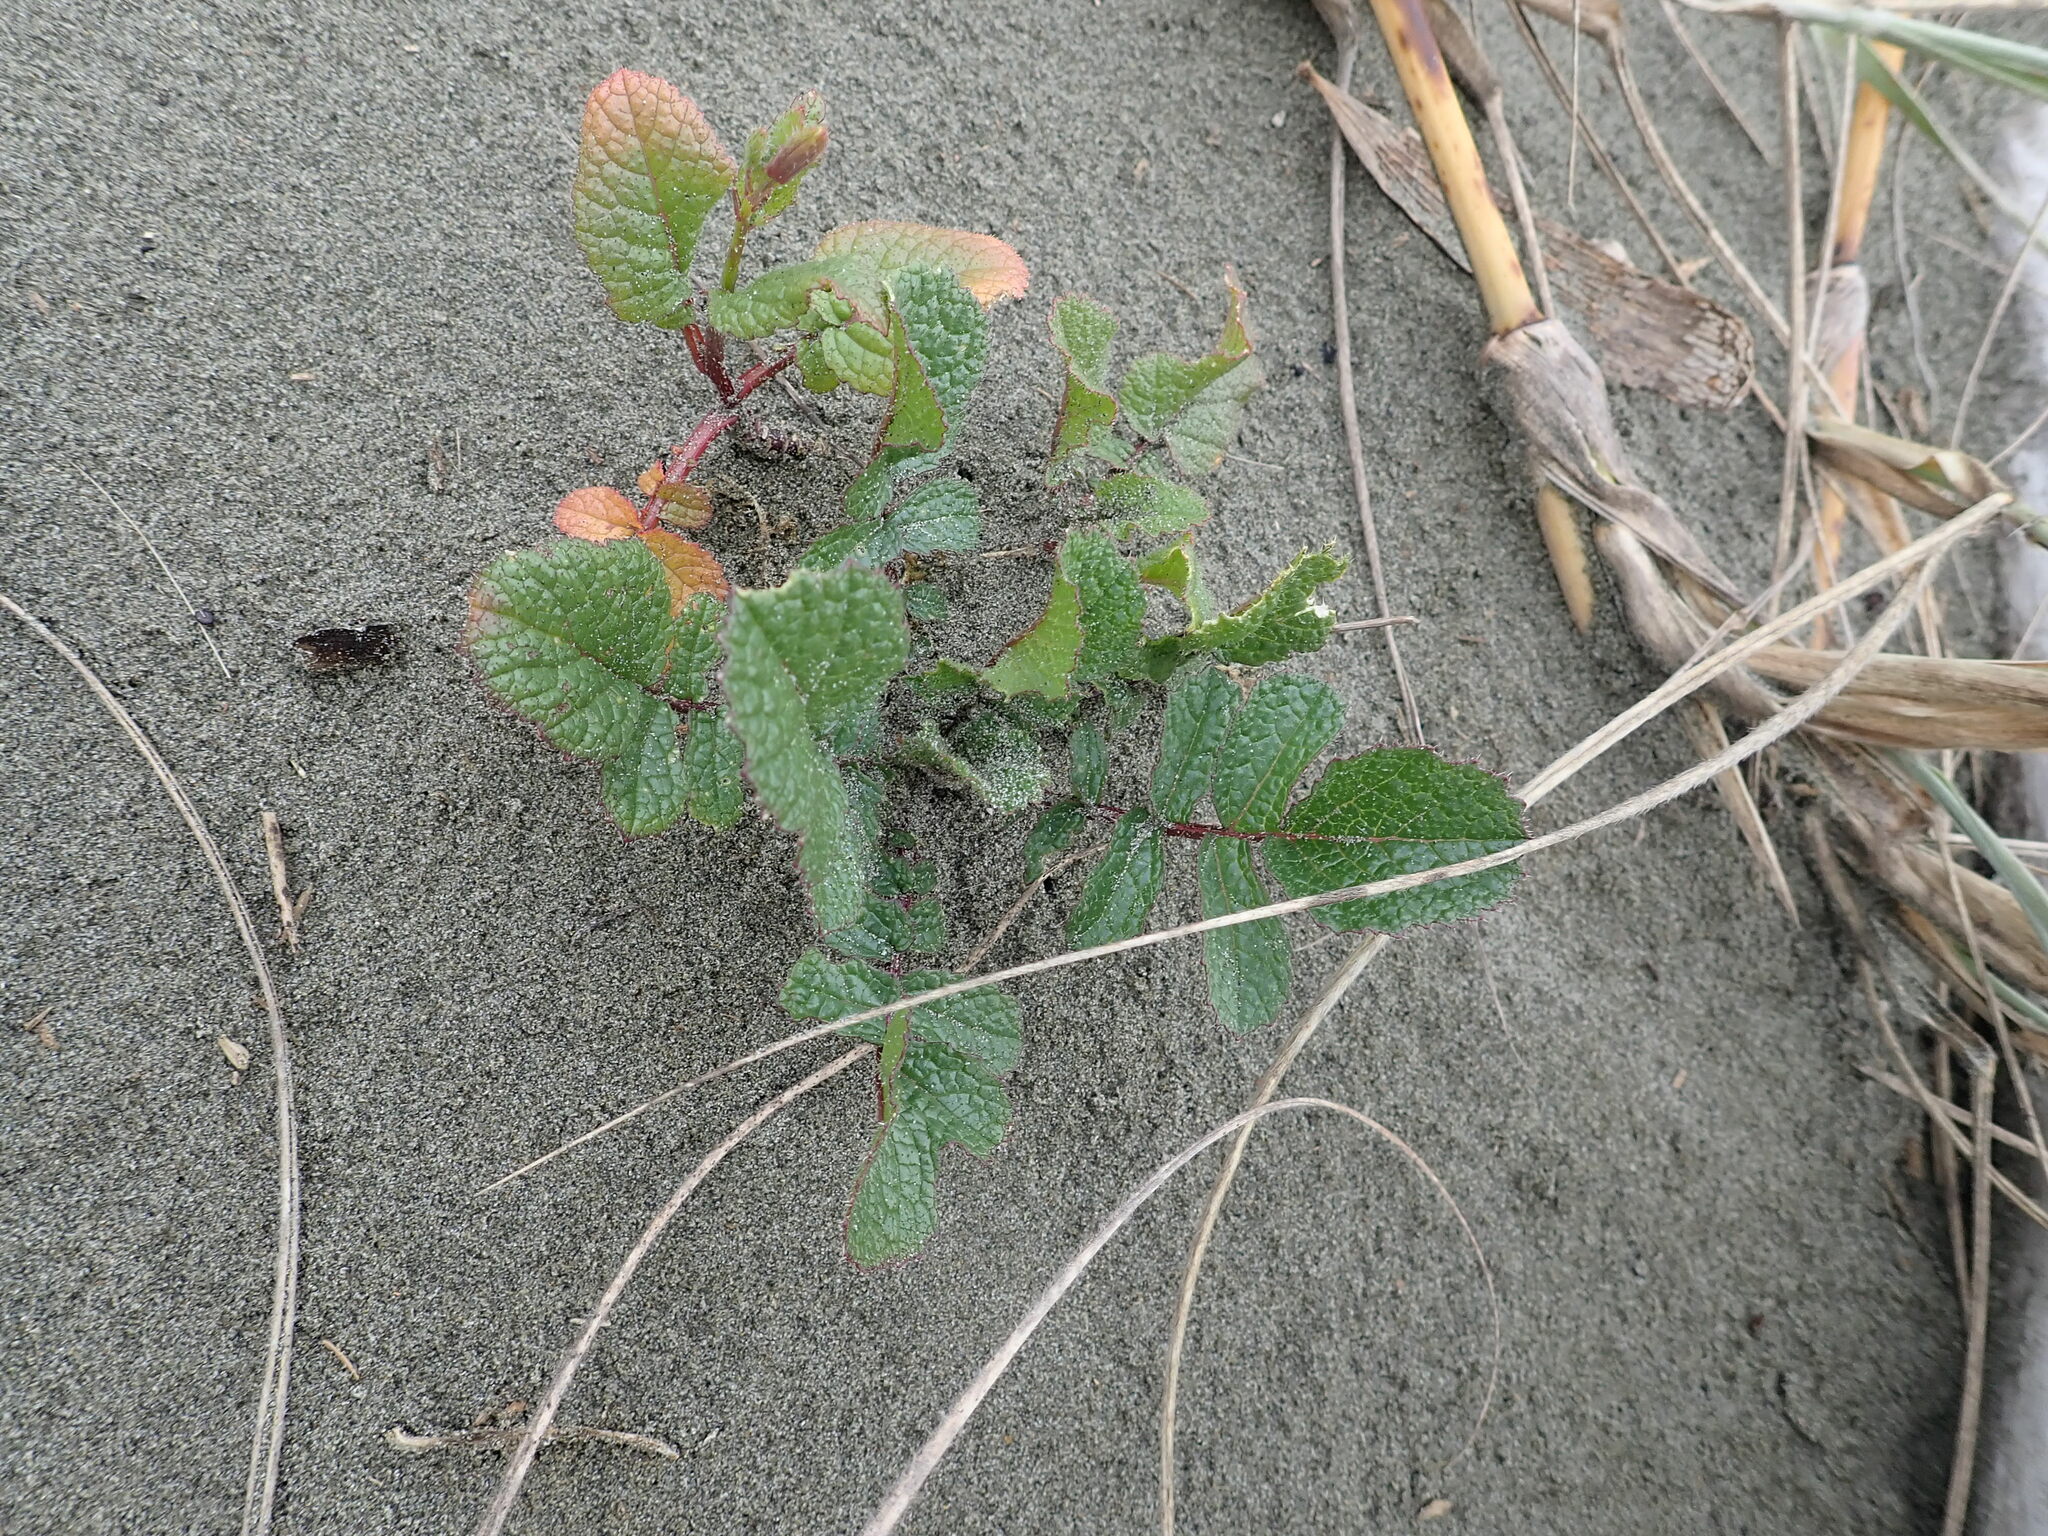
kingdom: Plantae
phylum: Tracheophyta
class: Magnoliopsida
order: Brassicales
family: Brassicaceae
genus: Raphanus
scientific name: Raphanus raphanistrum
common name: Wild radish
